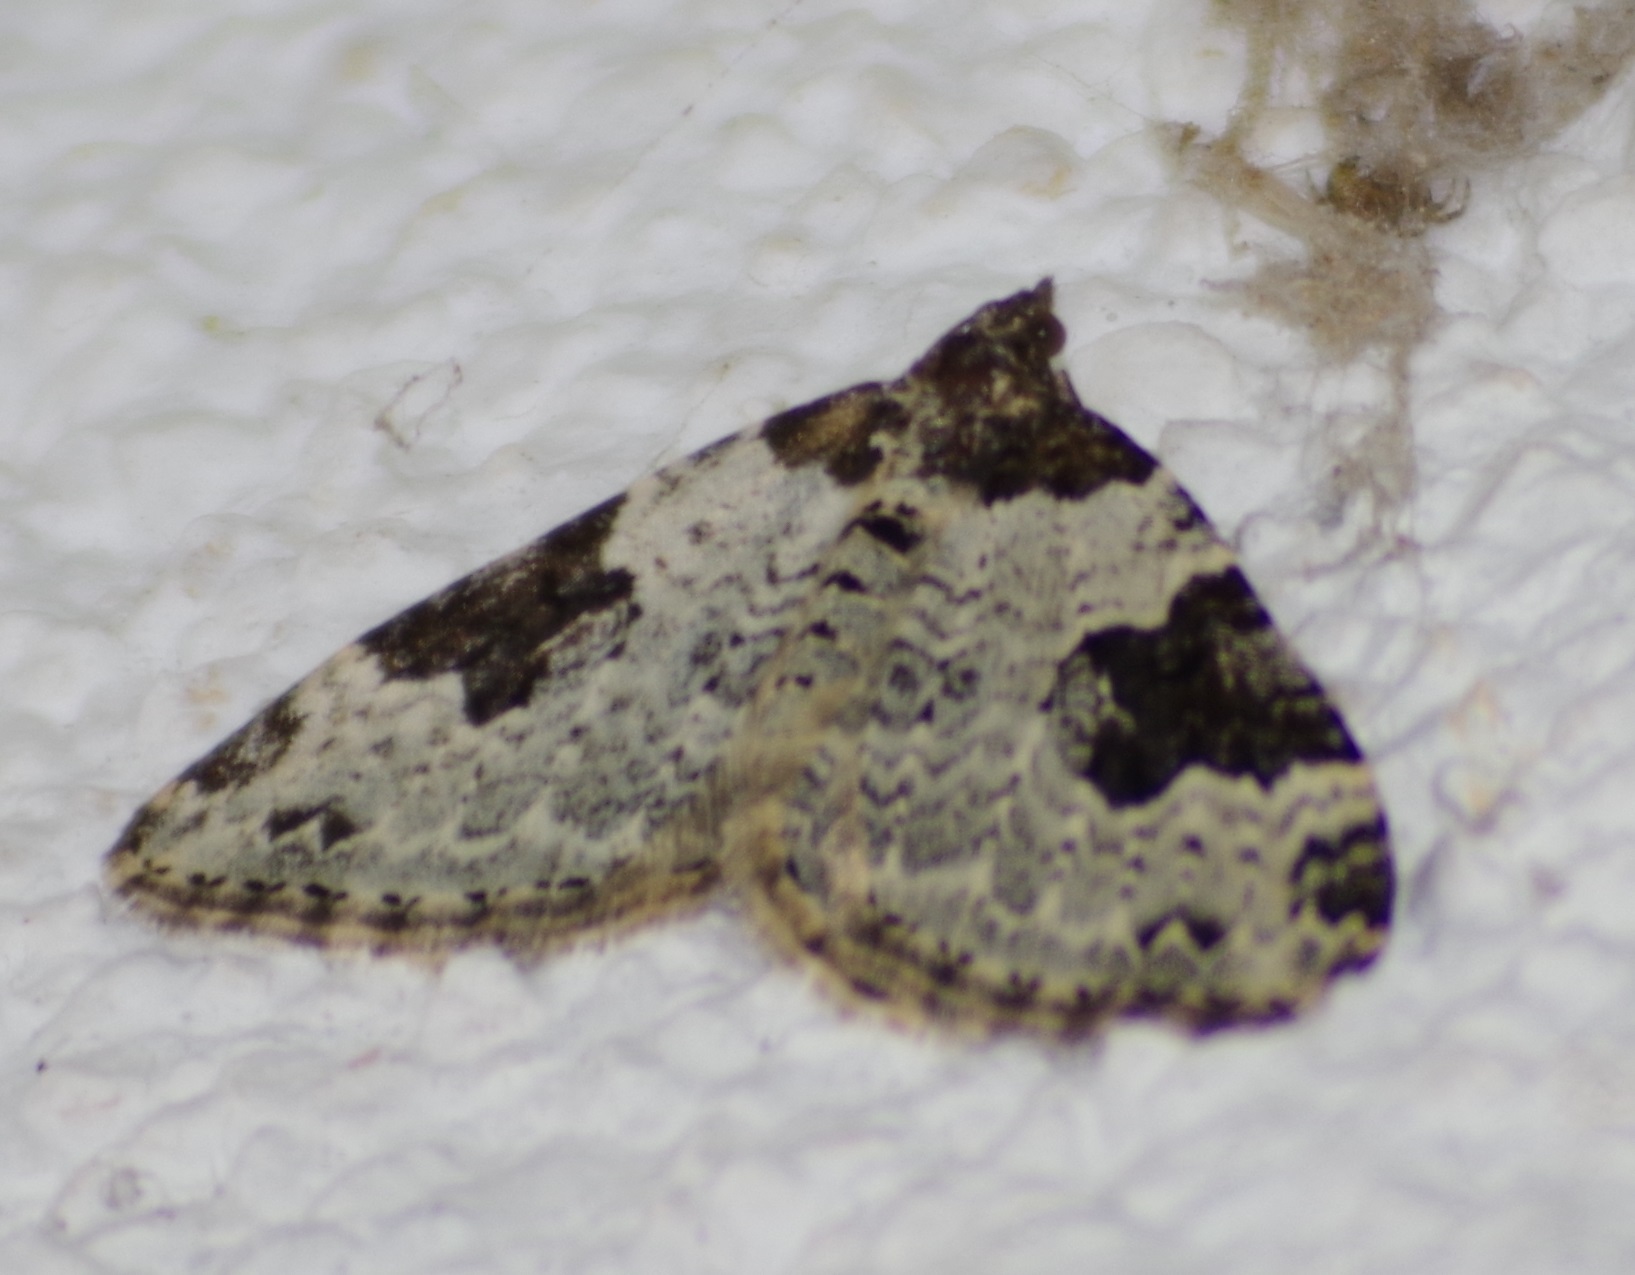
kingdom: Animalia
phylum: Arthropoda
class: Insecta
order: Lepidoptera
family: Geometridae
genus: Xanthorhoe
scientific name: Xanthorhoe fluctuata
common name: Garden carpet
